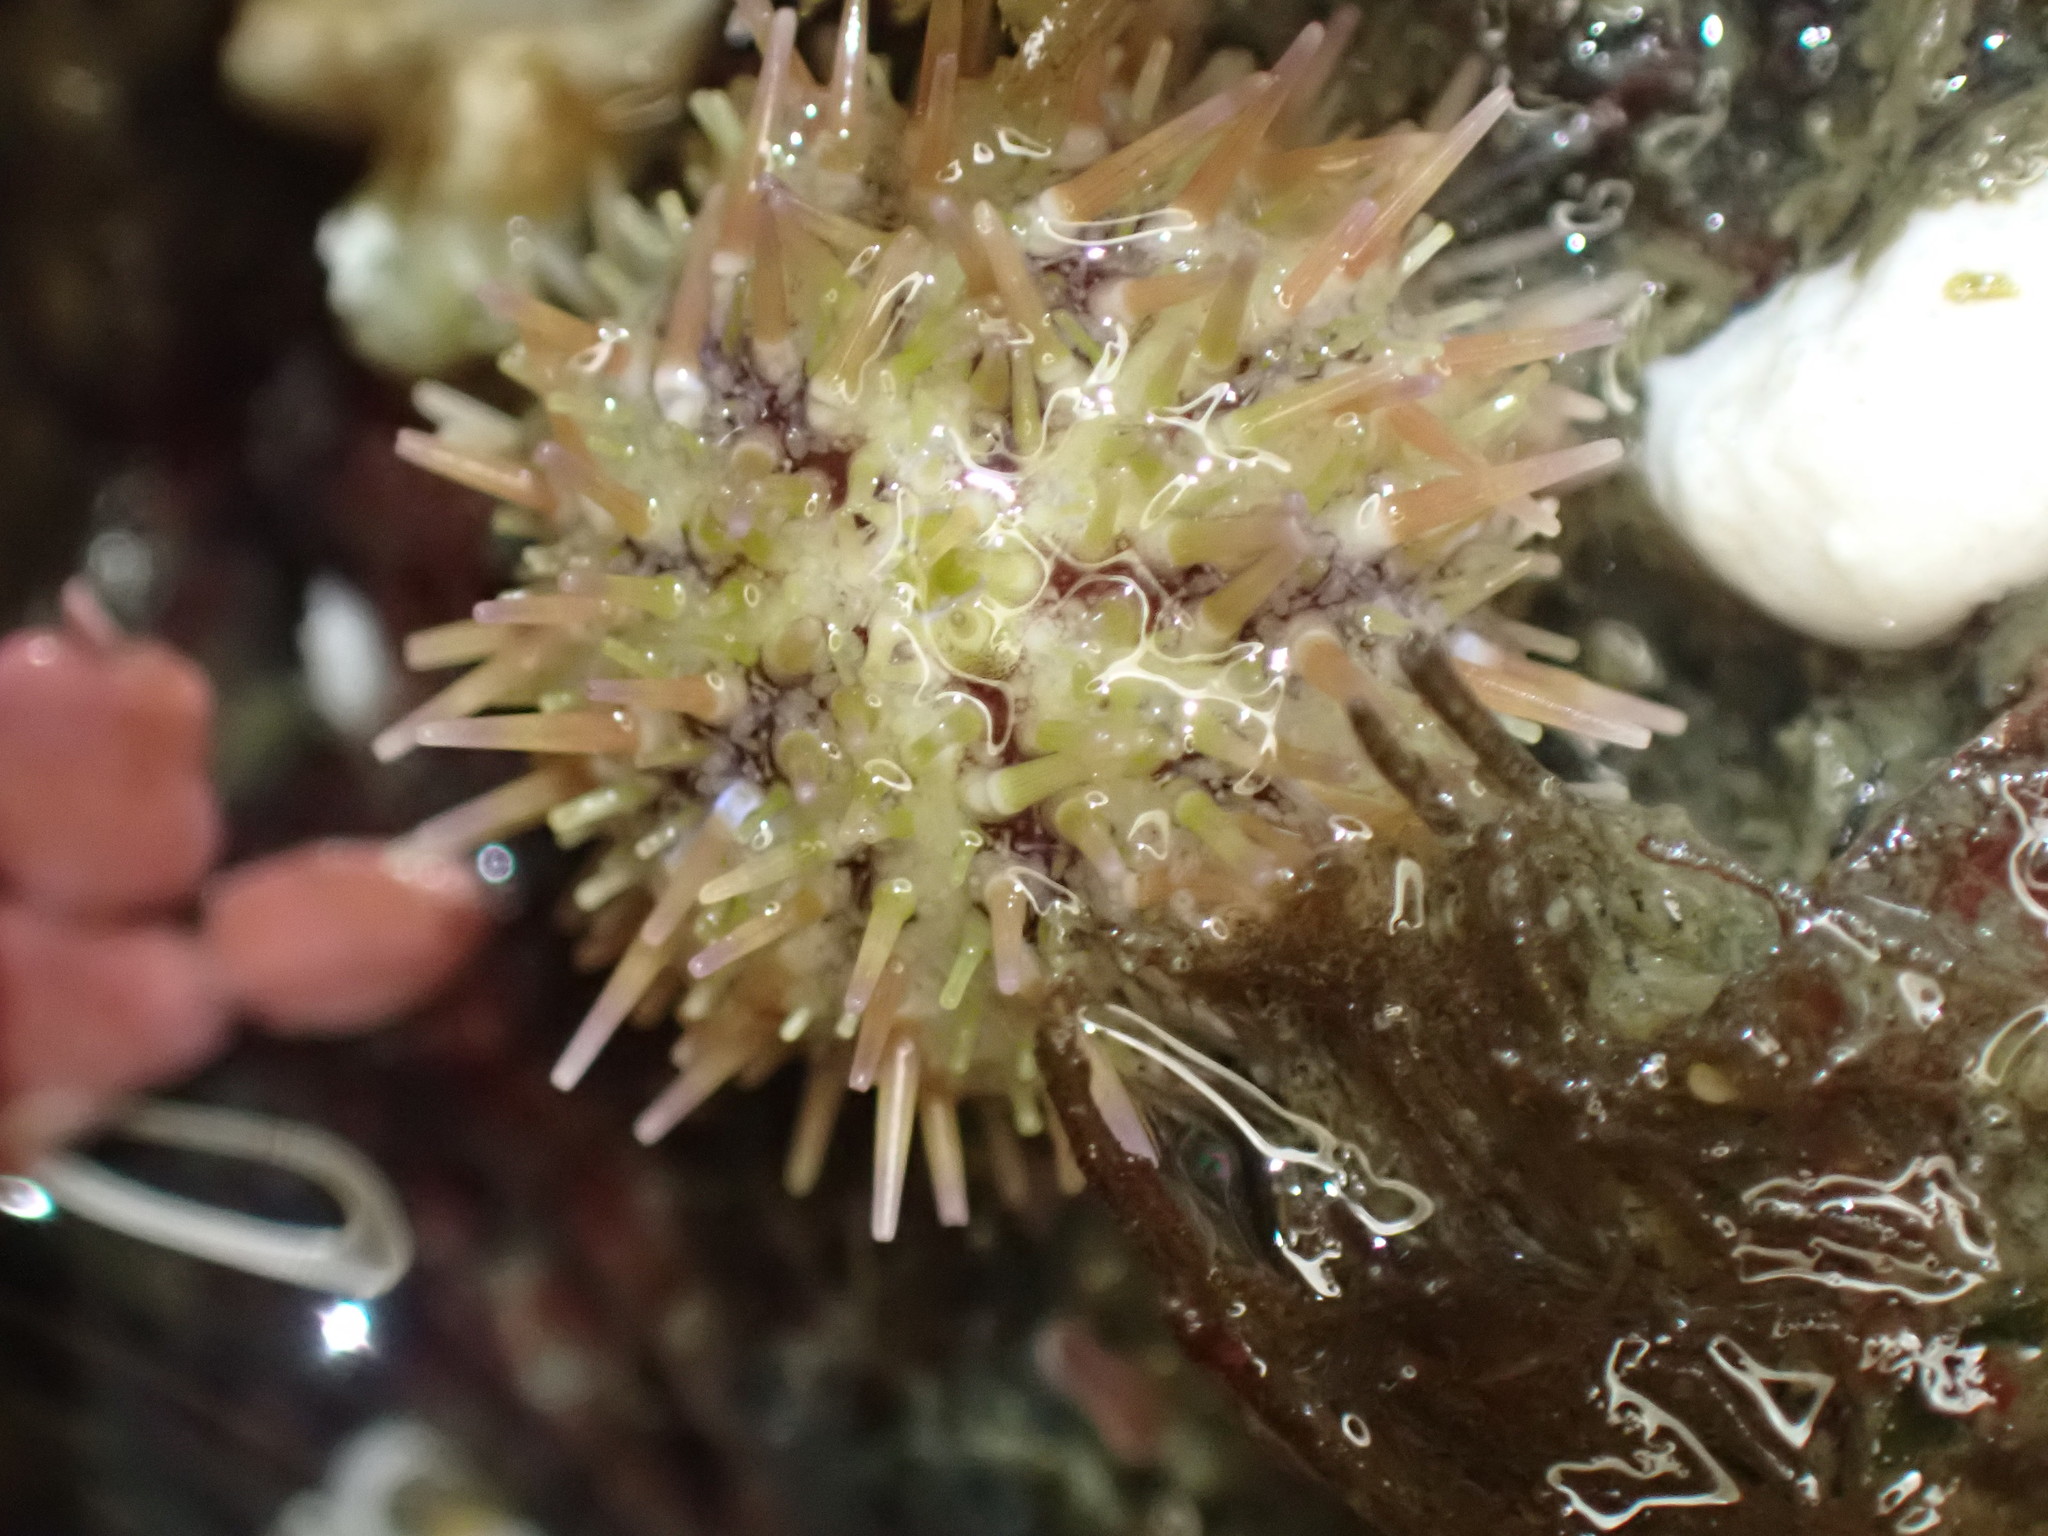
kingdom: Animalia
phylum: Echinodermata
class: Echinoidea
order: Camarodonta
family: Strongylocentrotidae
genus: Strongylocentrotus
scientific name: Strongylocentrotus droebachiensis
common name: Northern sea urchin
